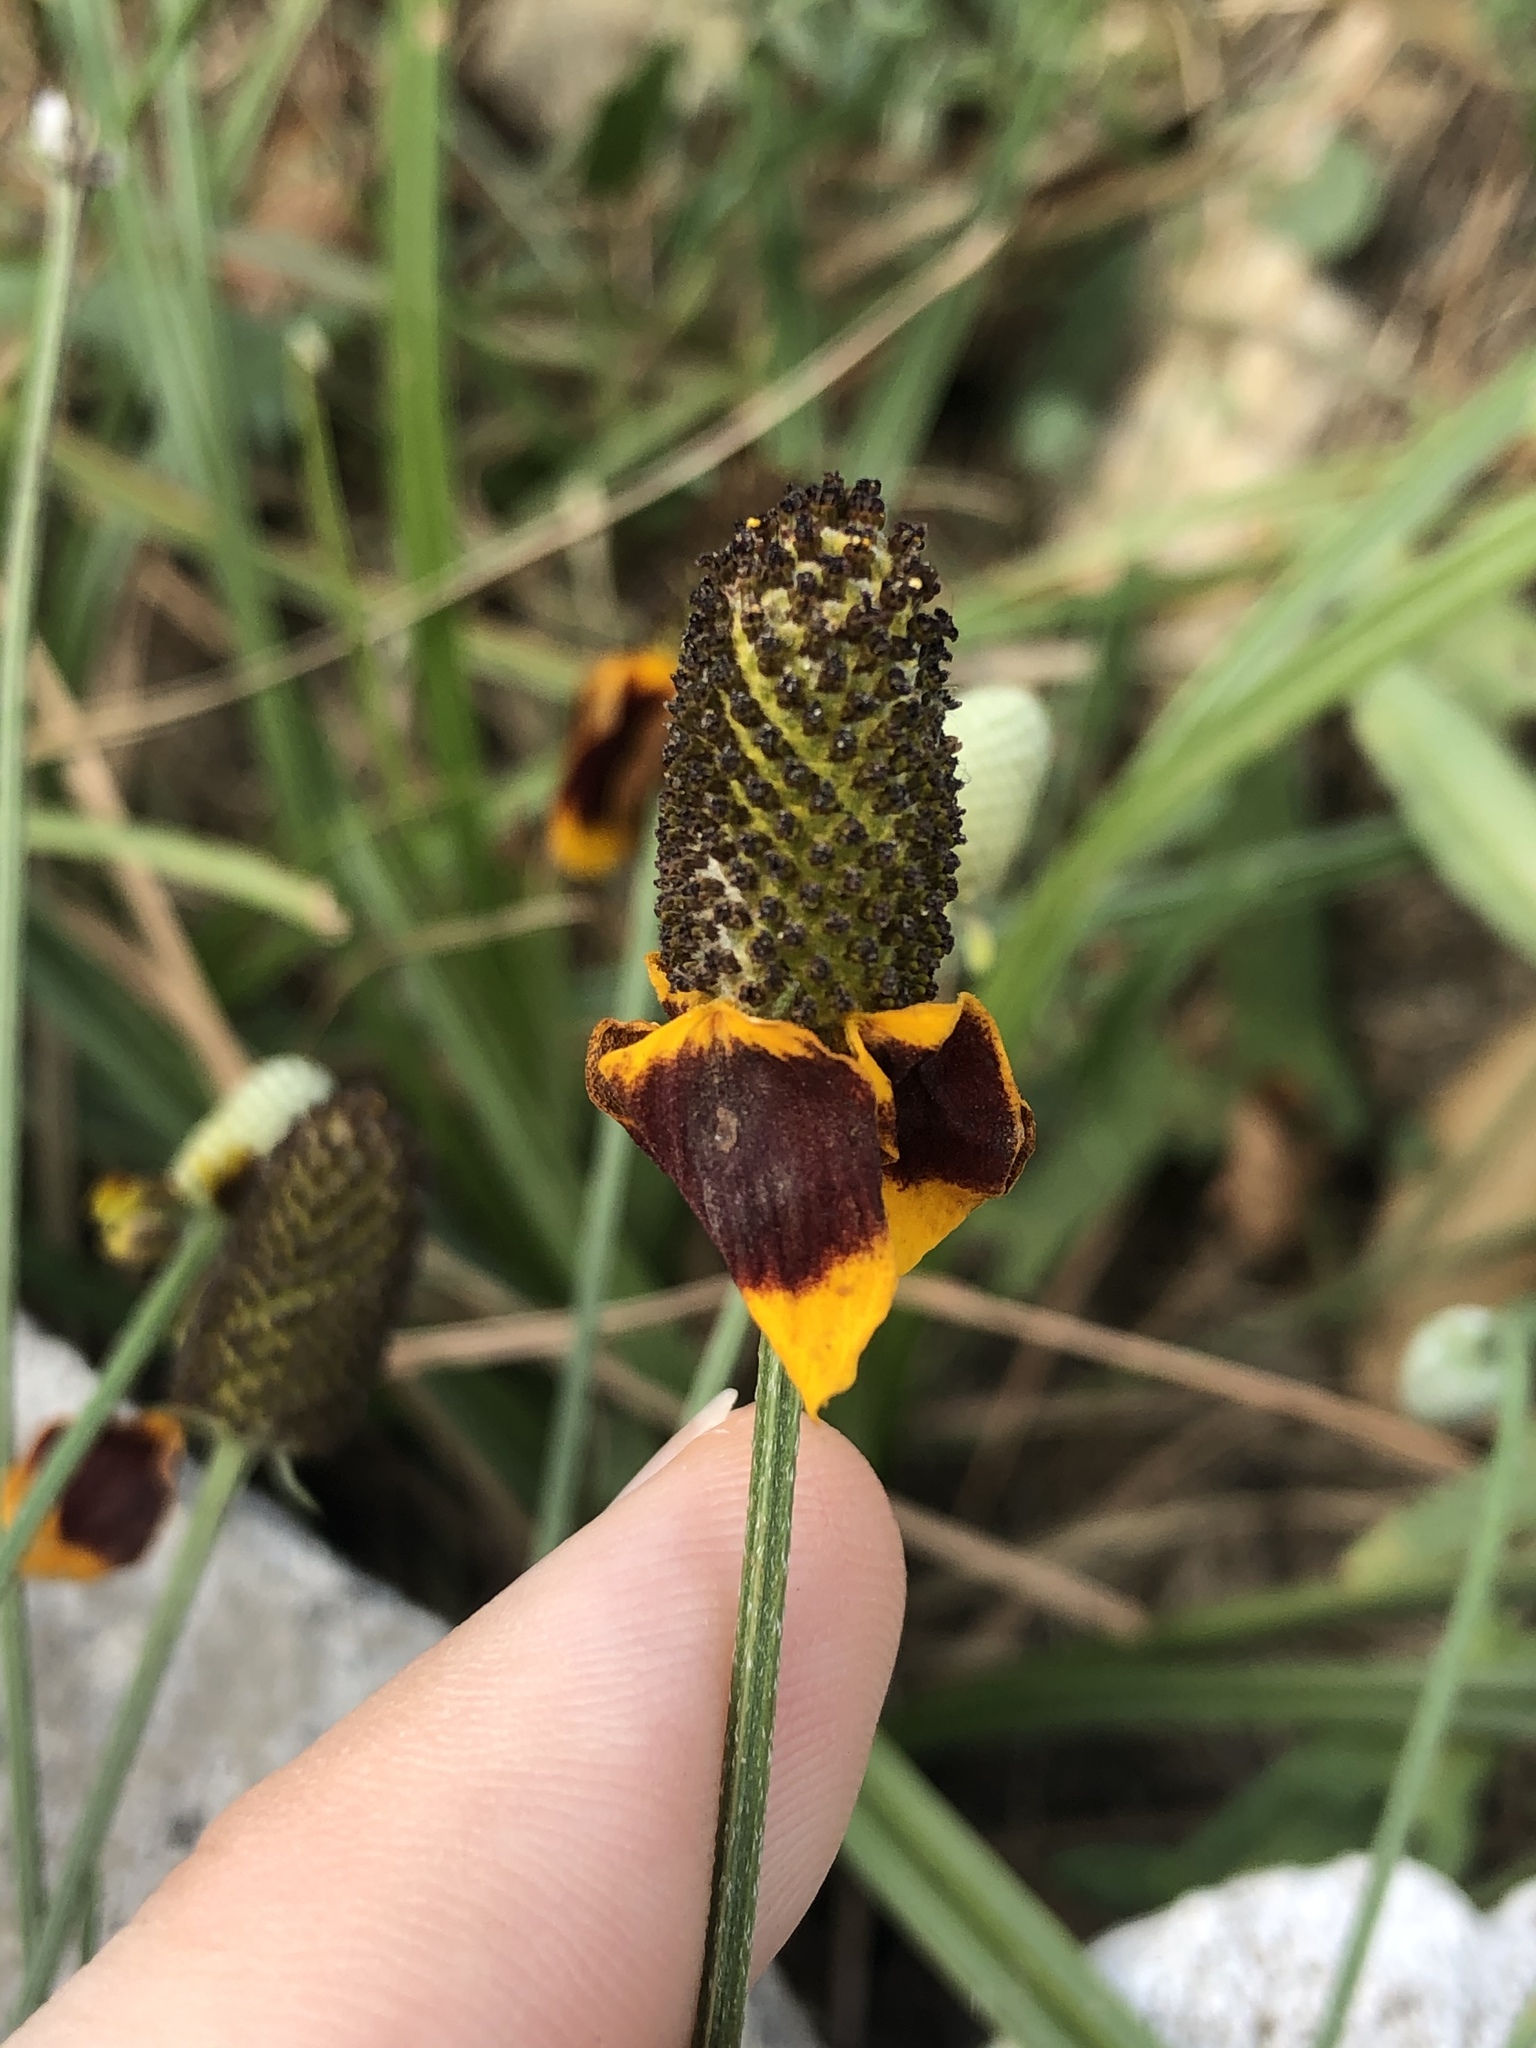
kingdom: Plantae
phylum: Tracheophyta
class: Magnoliopsida
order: Asterales
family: Asteraceae
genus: Ratibida
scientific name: Ratibida columnifera
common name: Prairie coneflower
